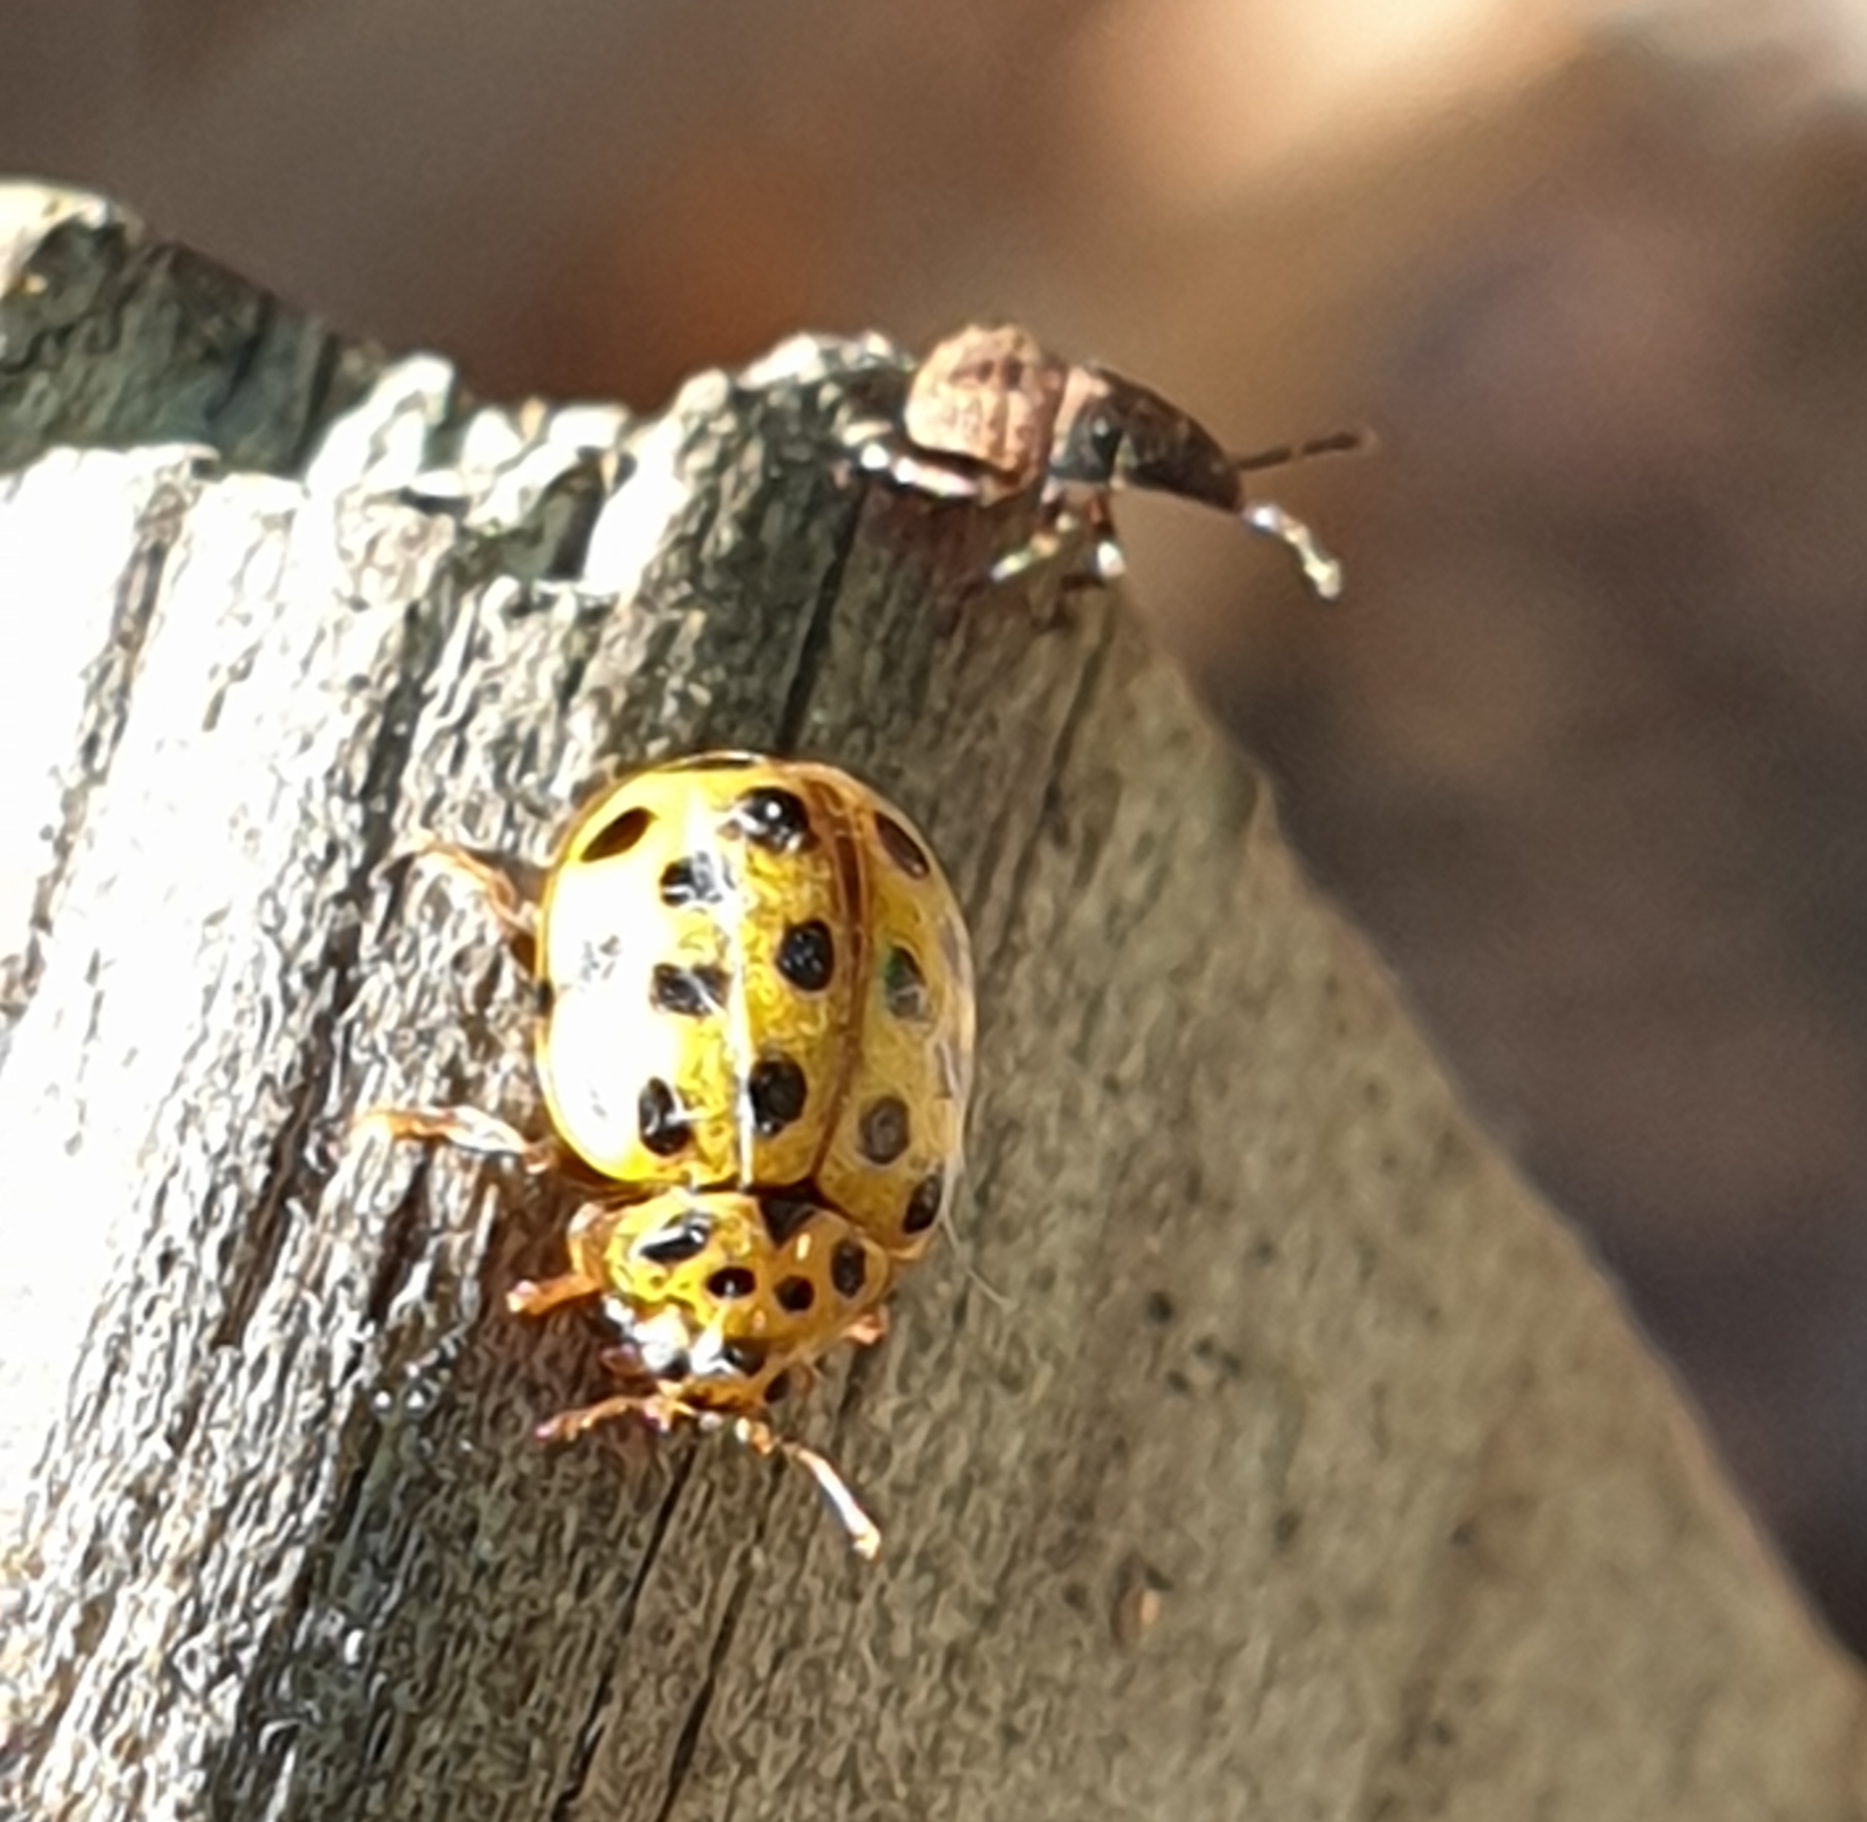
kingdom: Animalia
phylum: Arthropoda
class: Insecta
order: Coleoptera
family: Coccinellidae
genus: Psyllobora
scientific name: Psyllobora vigintiduopunctata
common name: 22-spot ladybird
